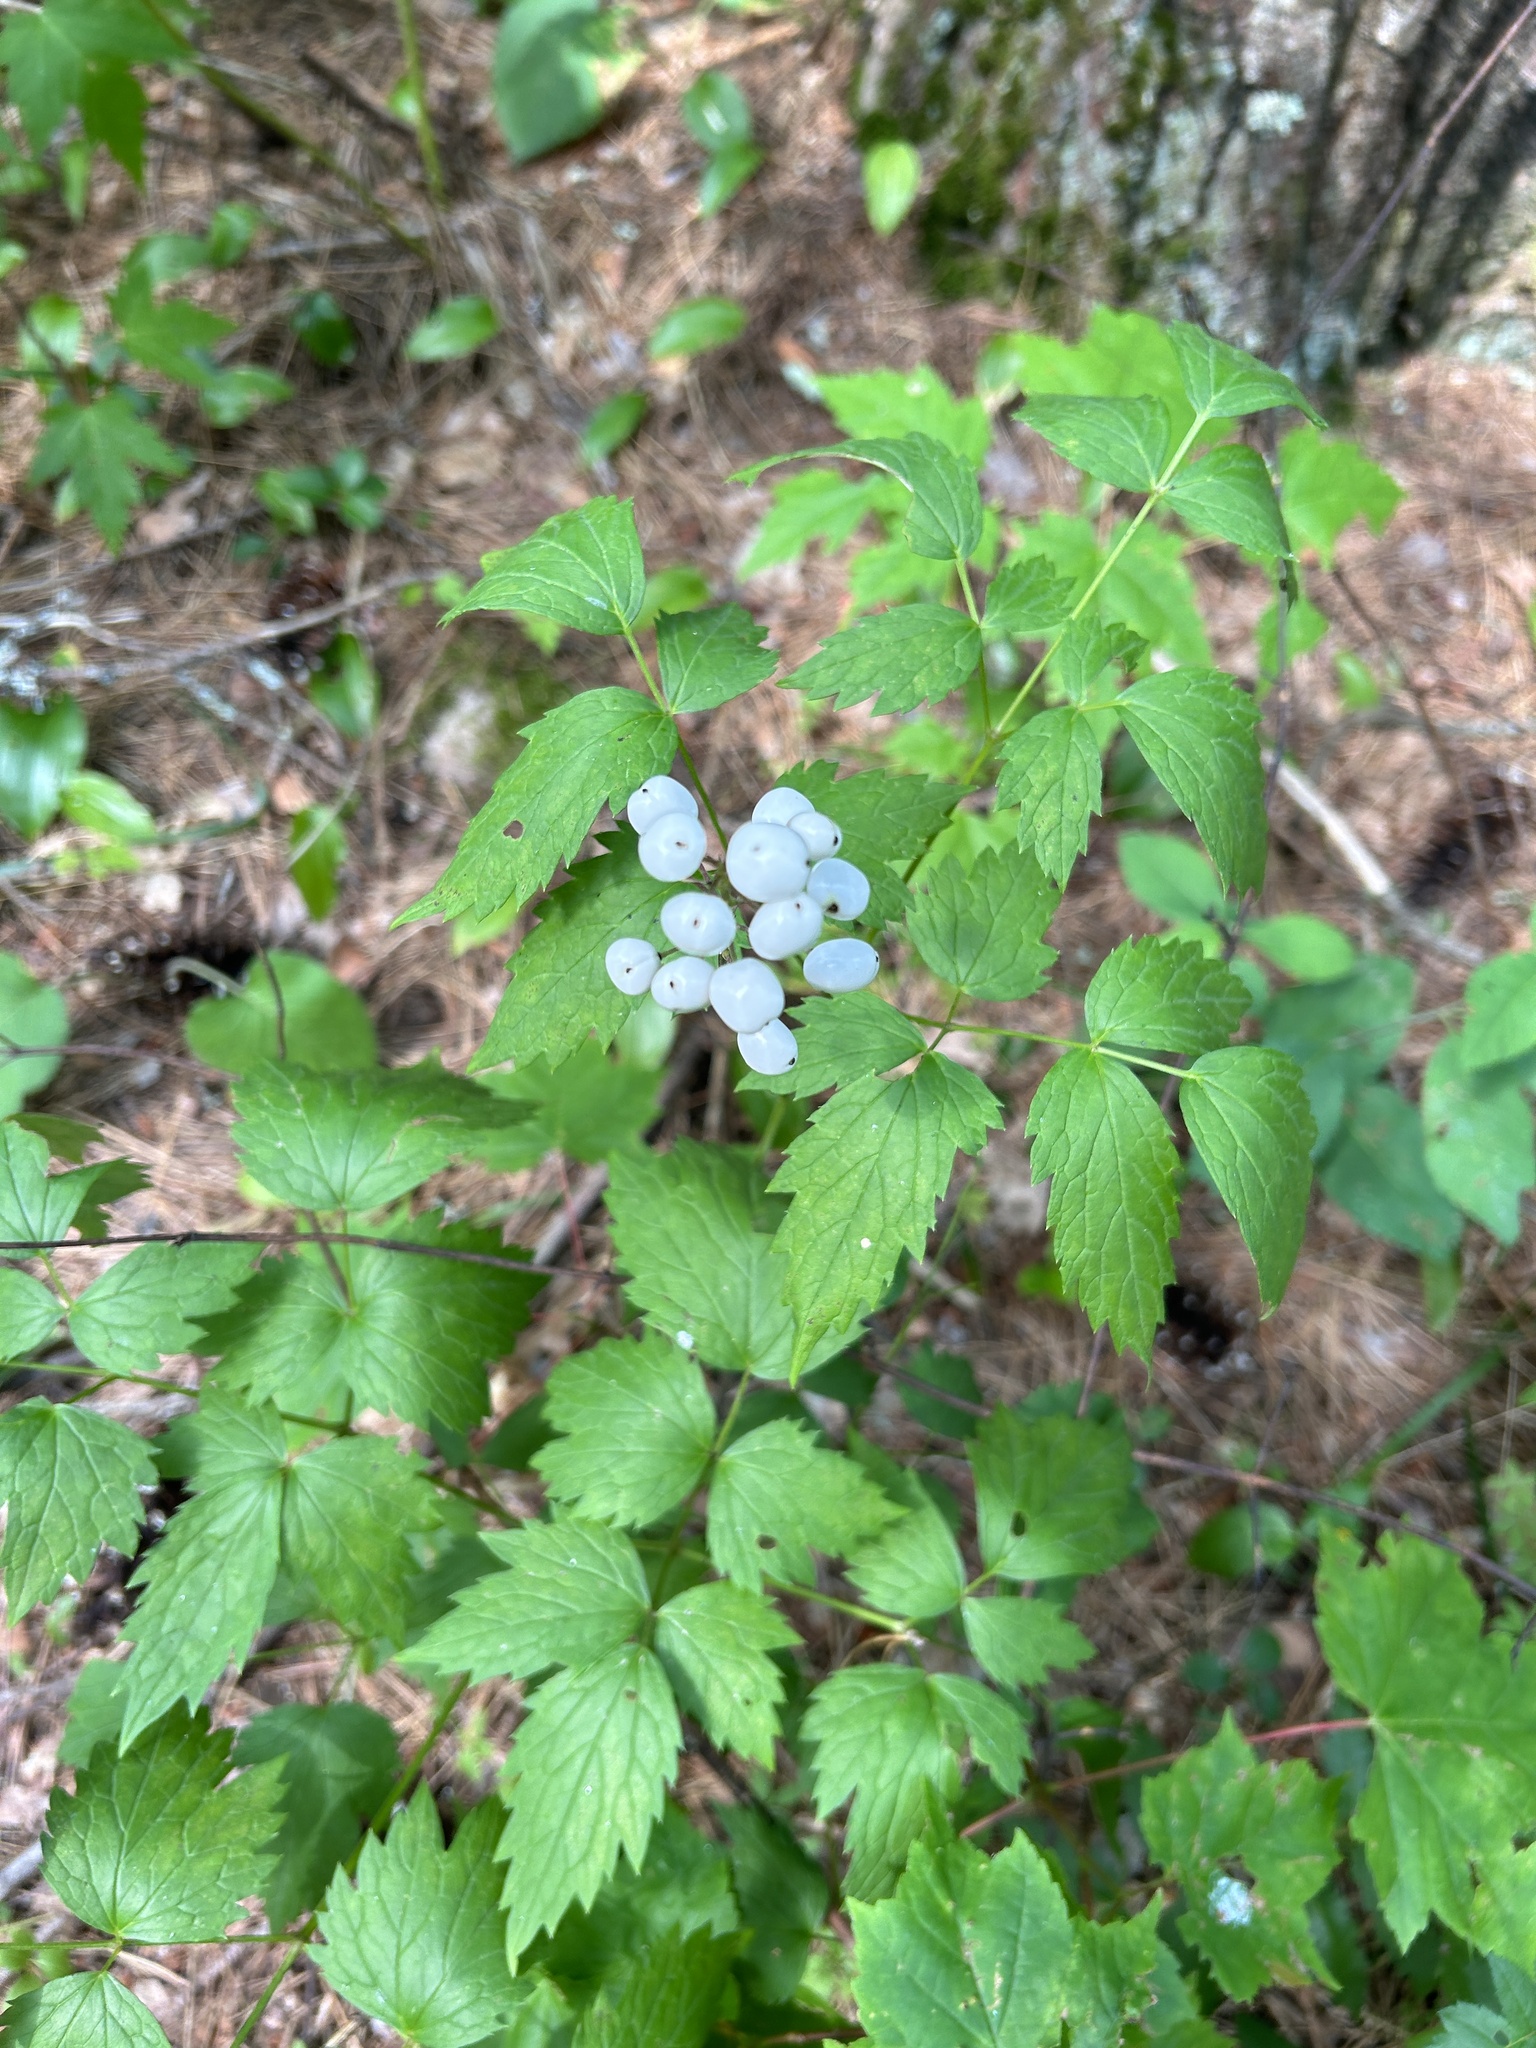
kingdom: Plantae
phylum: Tracheophyta
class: Magnoliopsida
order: Ranunculales
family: Ranunculaceae
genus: Actaea
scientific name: Actaea rubra
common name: Red baneberry
